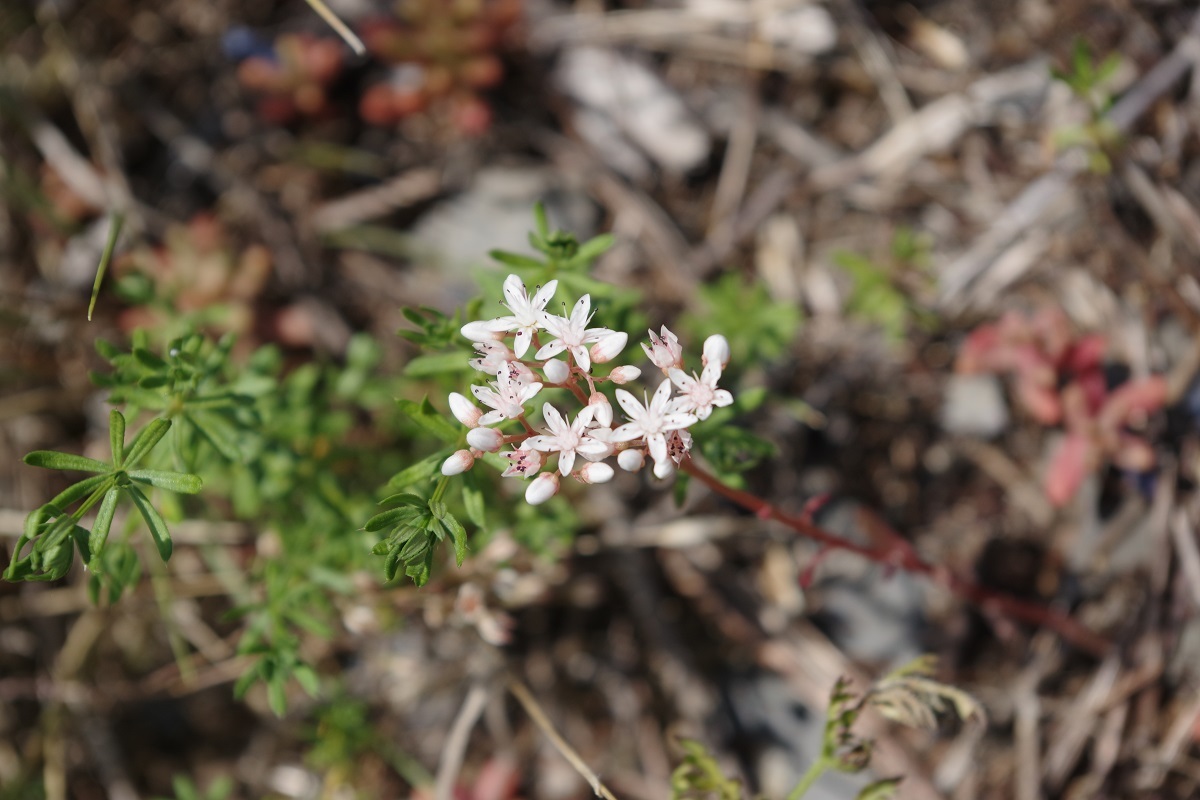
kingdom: Plantae
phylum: Tracheophyta
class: Magnoliopsida
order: Saxifragales
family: Crassulaceae
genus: Sedum
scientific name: Sedum album
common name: White stonecrop
